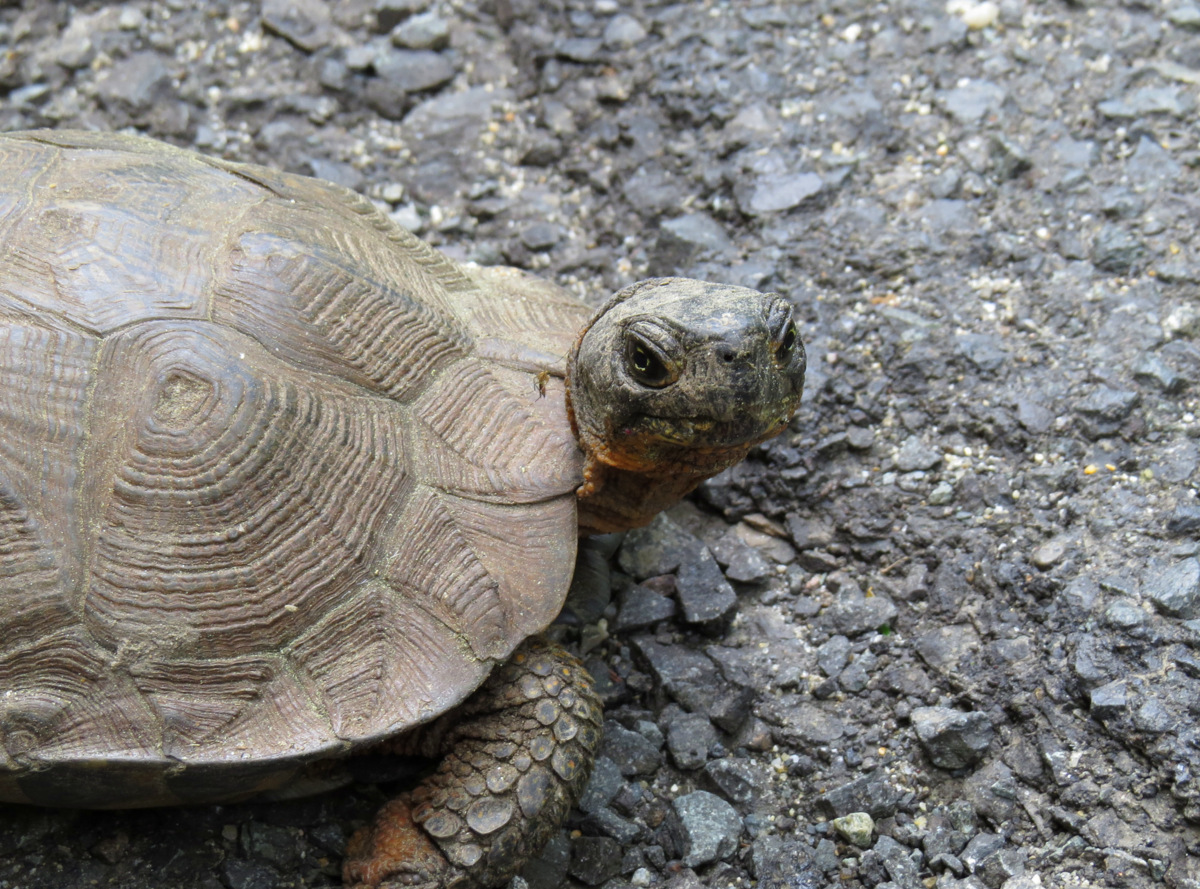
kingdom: Animalia
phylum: Chordata
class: Testudines
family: Emydidae
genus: Glyptemys
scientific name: Glyptemys insculpta
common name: Wood turtle
